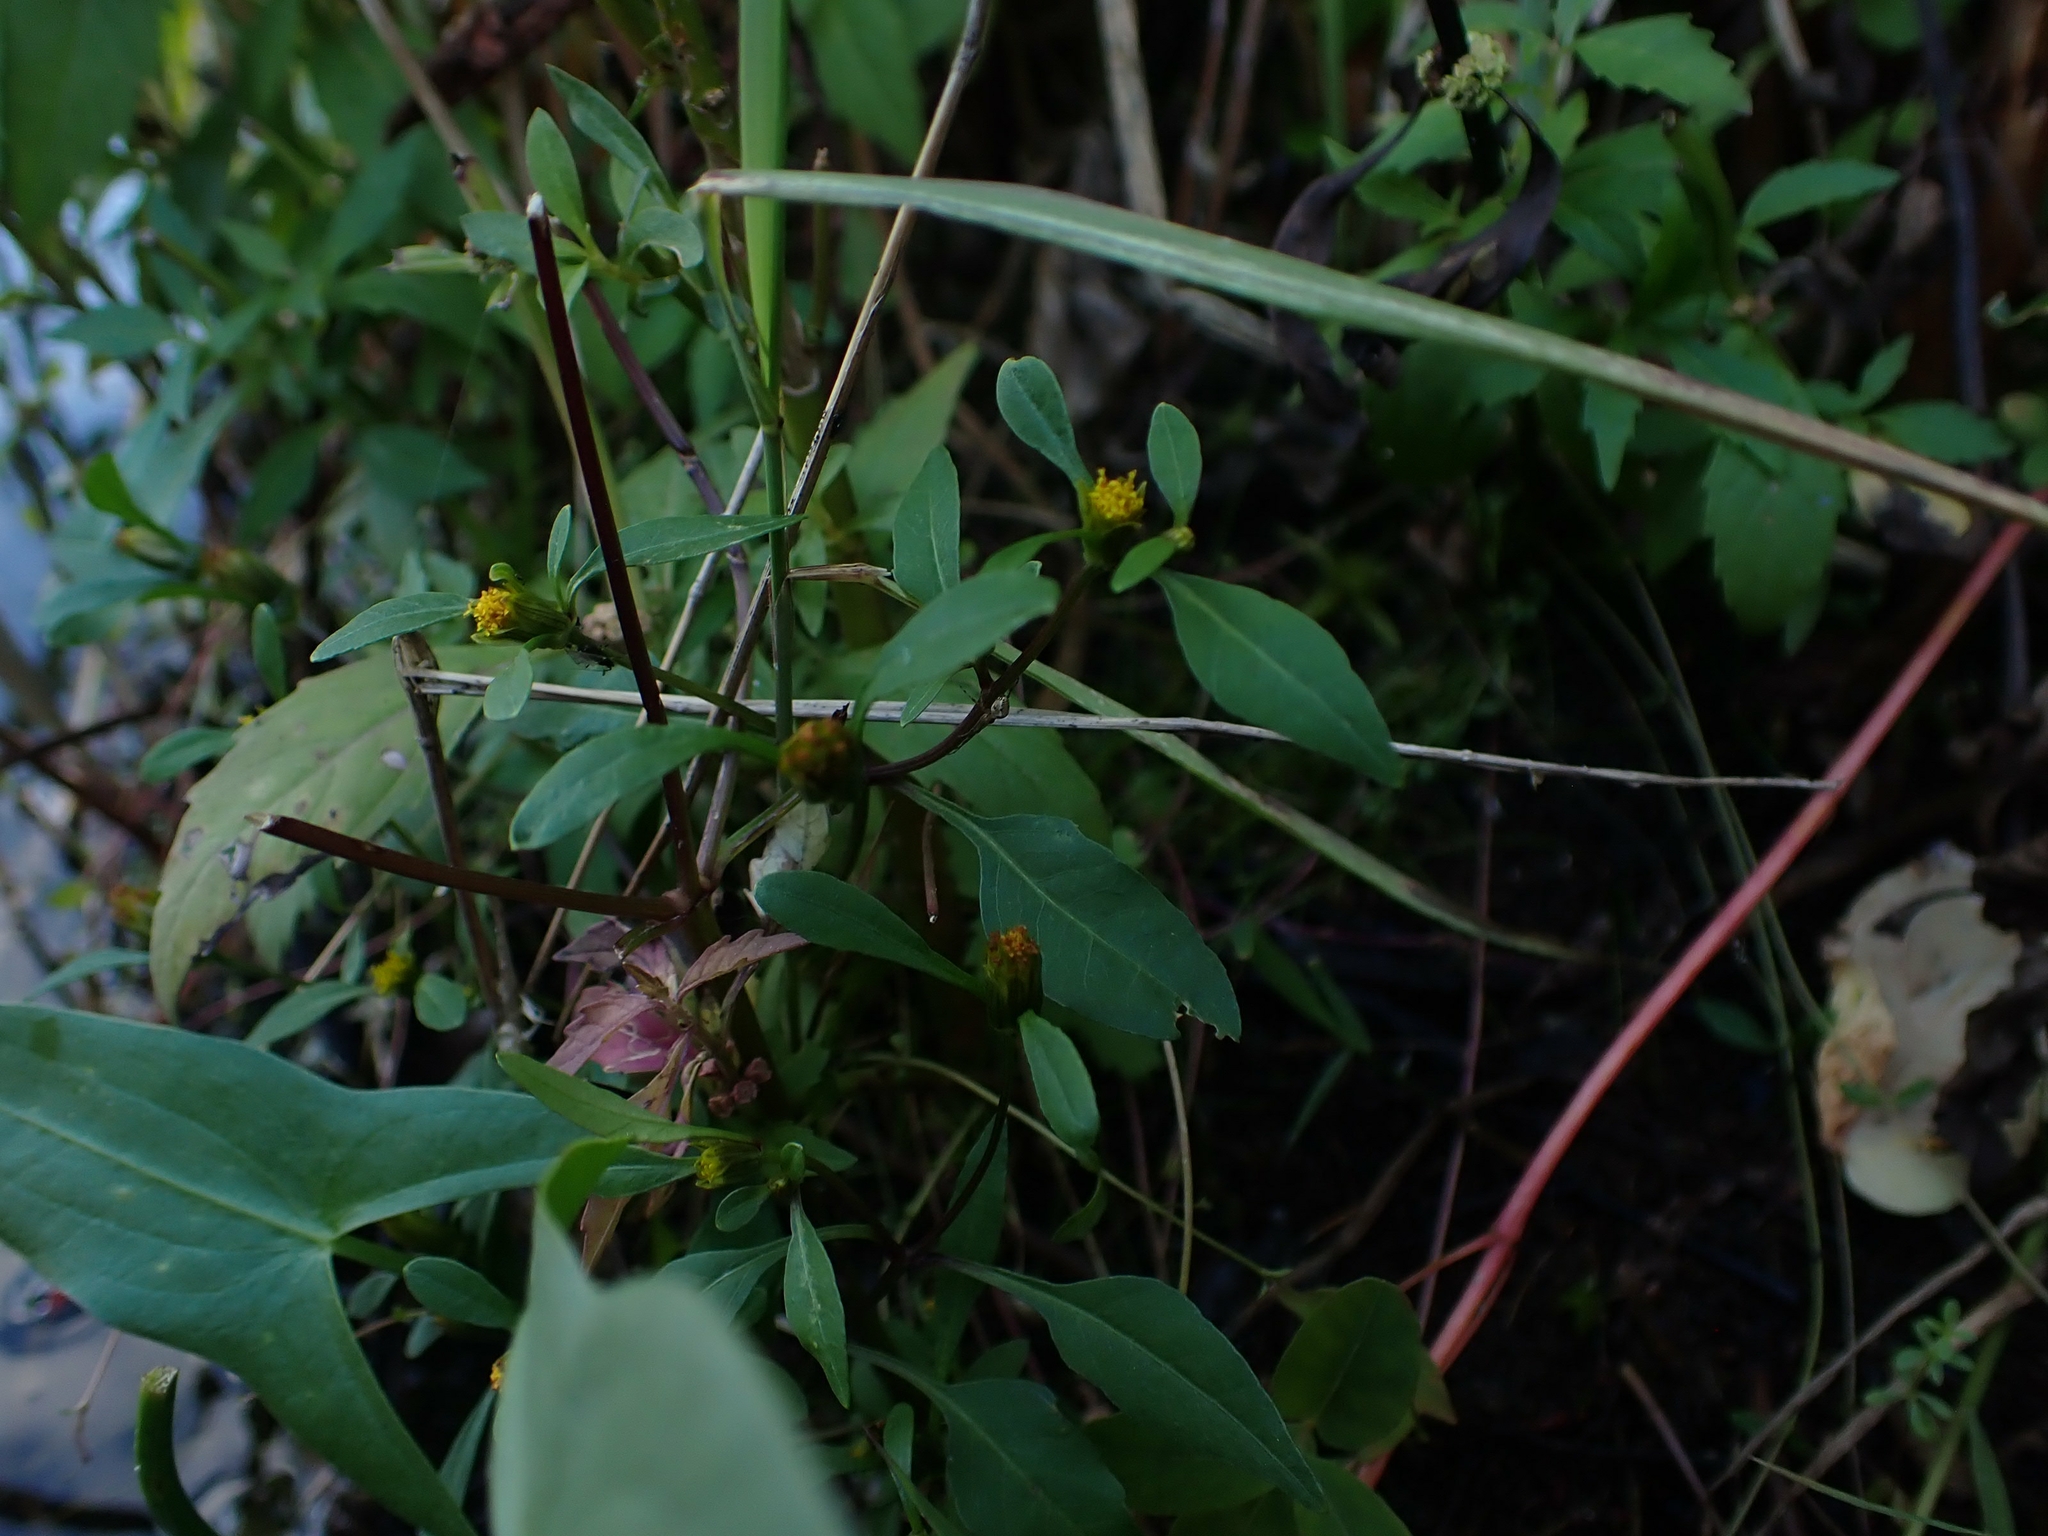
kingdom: Plantae
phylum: Tracheophyta
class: Magnoliopsida
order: Asterales
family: Asteraceae
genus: Bidens
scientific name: Bidens frondosa
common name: Beggarticks
